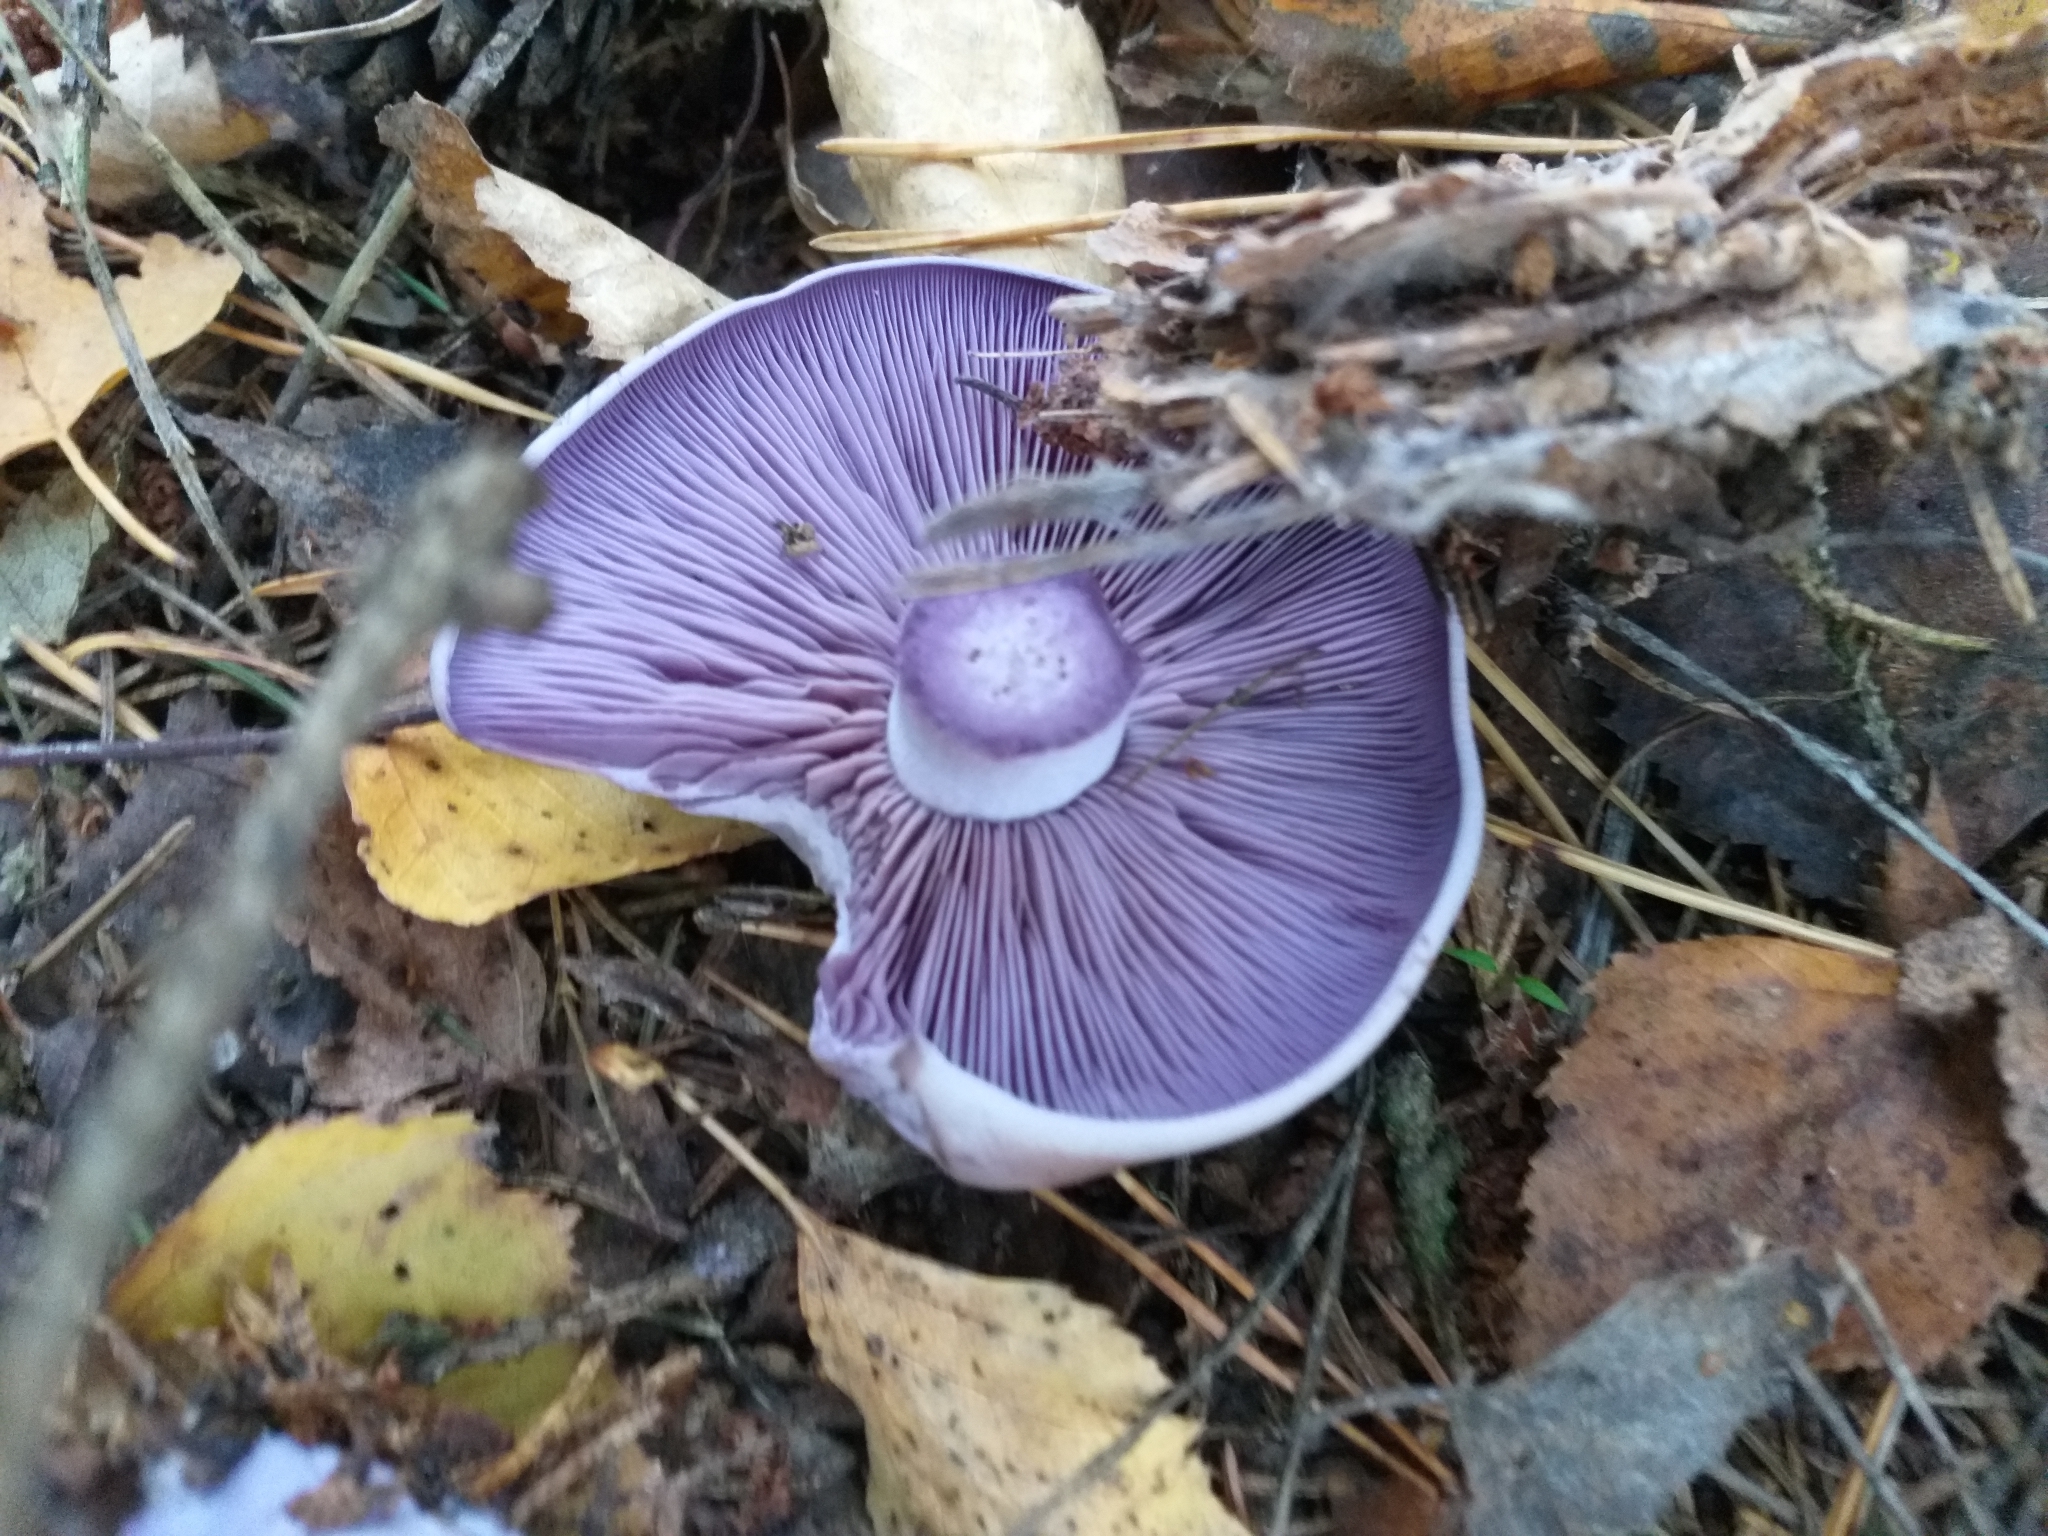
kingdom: Fungi
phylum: Basidiomycota
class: Agaricomycetes
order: Agaricales
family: Tricholomataceae
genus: Collybia
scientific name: Collybia
